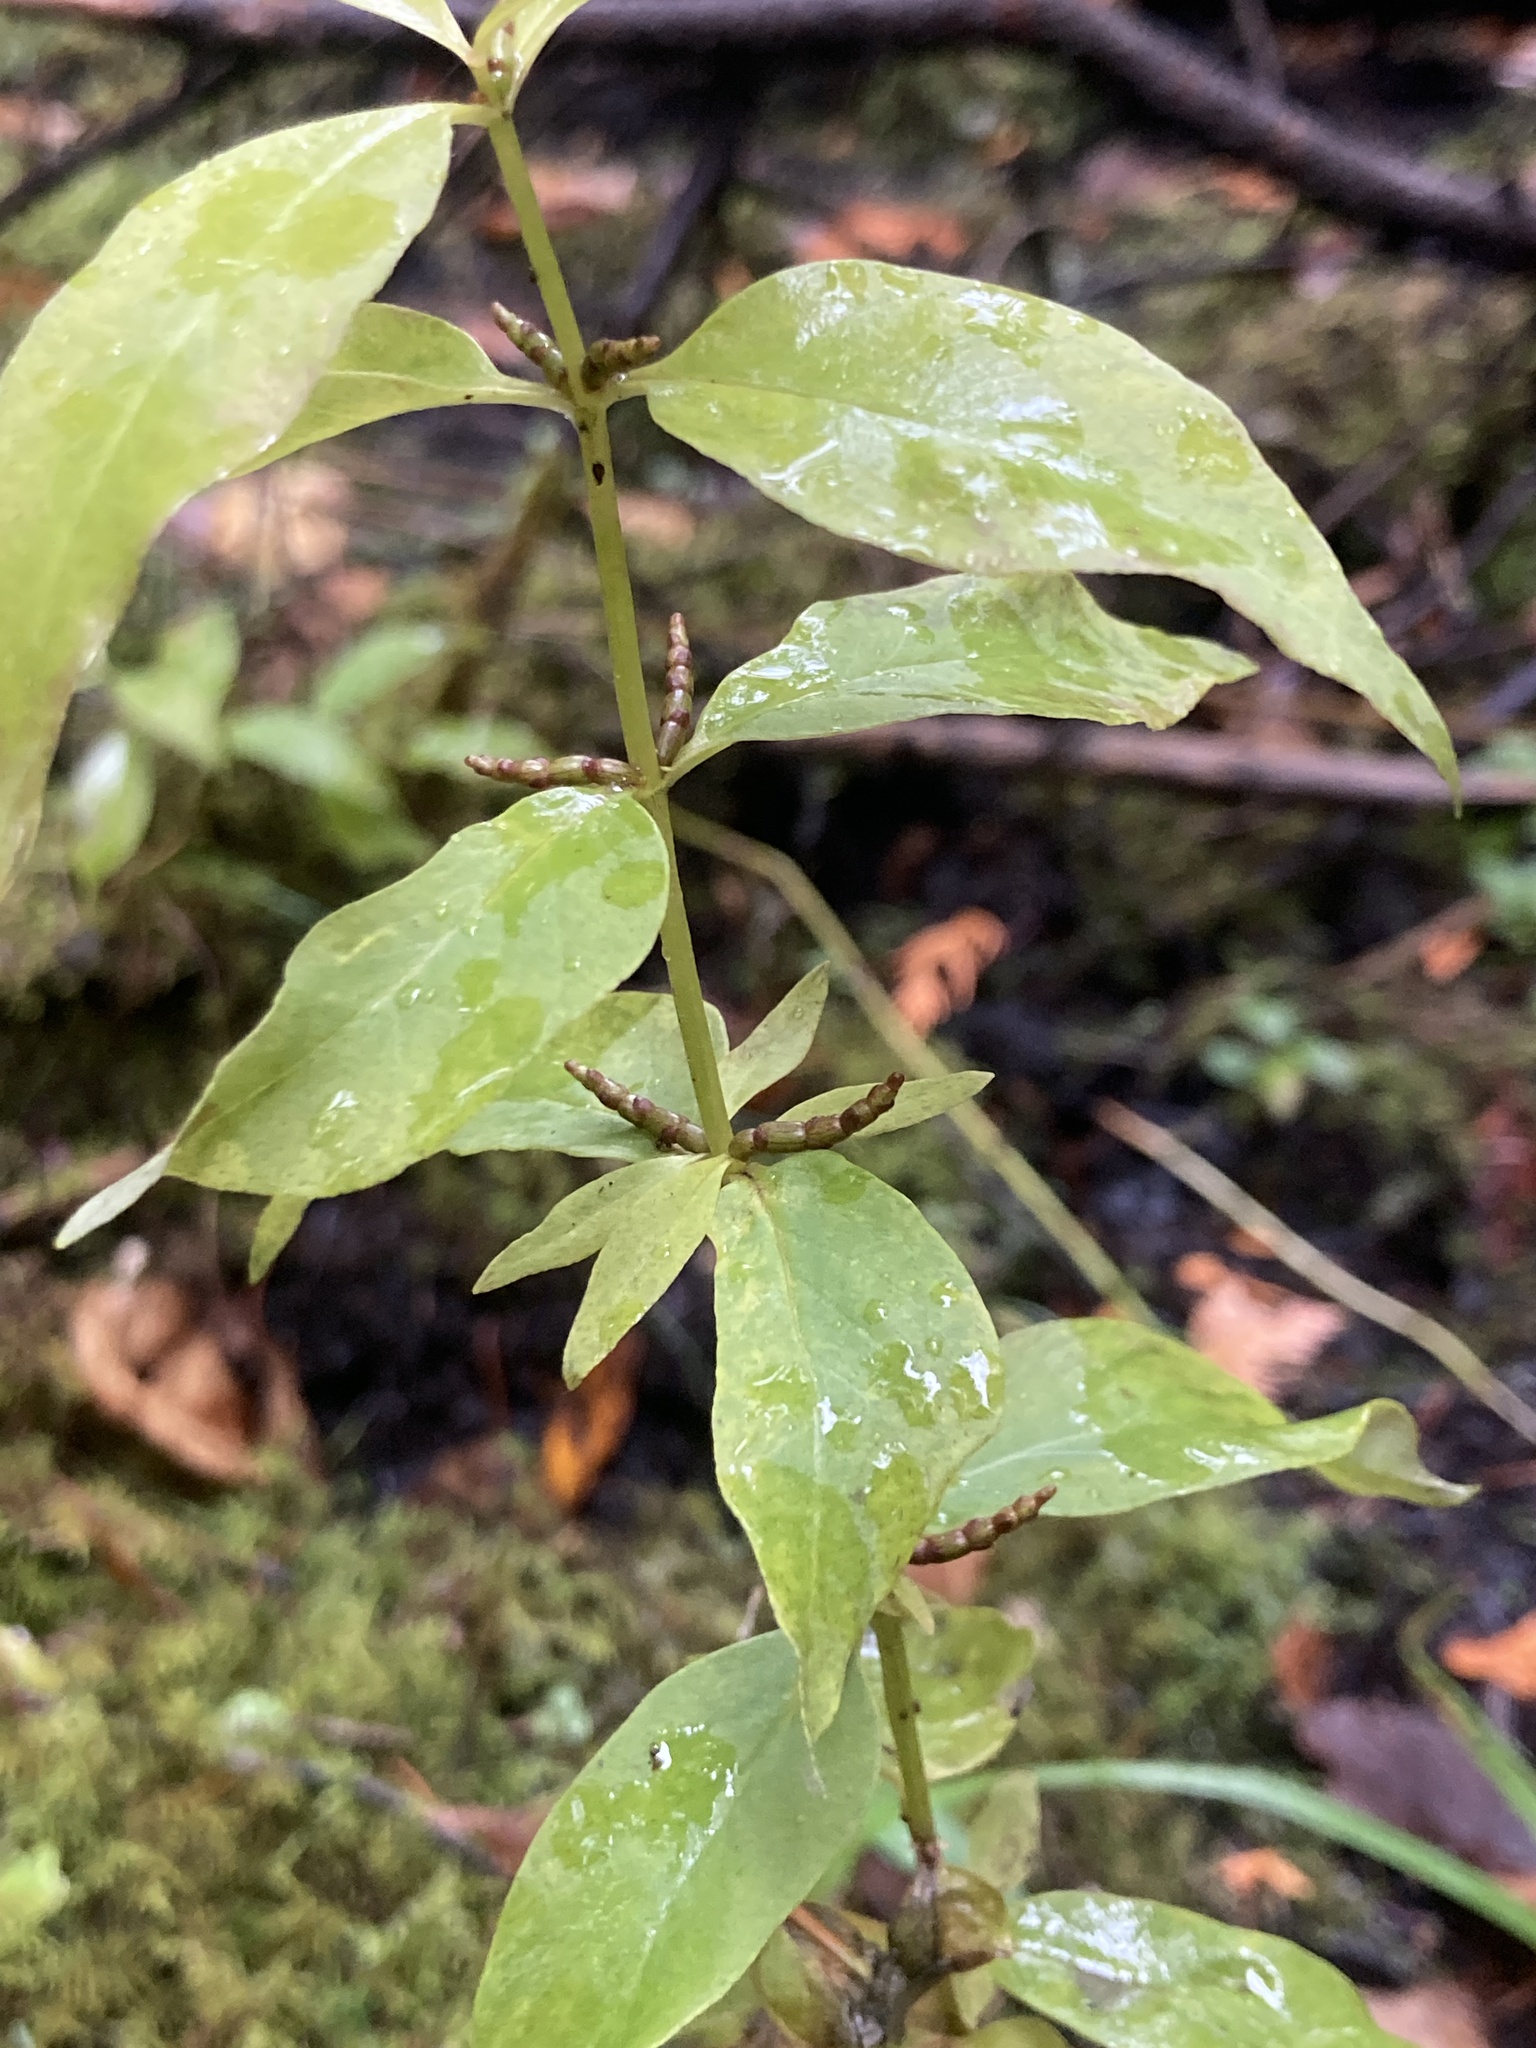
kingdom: Plantae
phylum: Tracheophyta
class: Magnoliopsida
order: Ericales
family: Primulaceae
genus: Lysimachia
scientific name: Lysimachia terrestris
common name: Lake loosestrife
